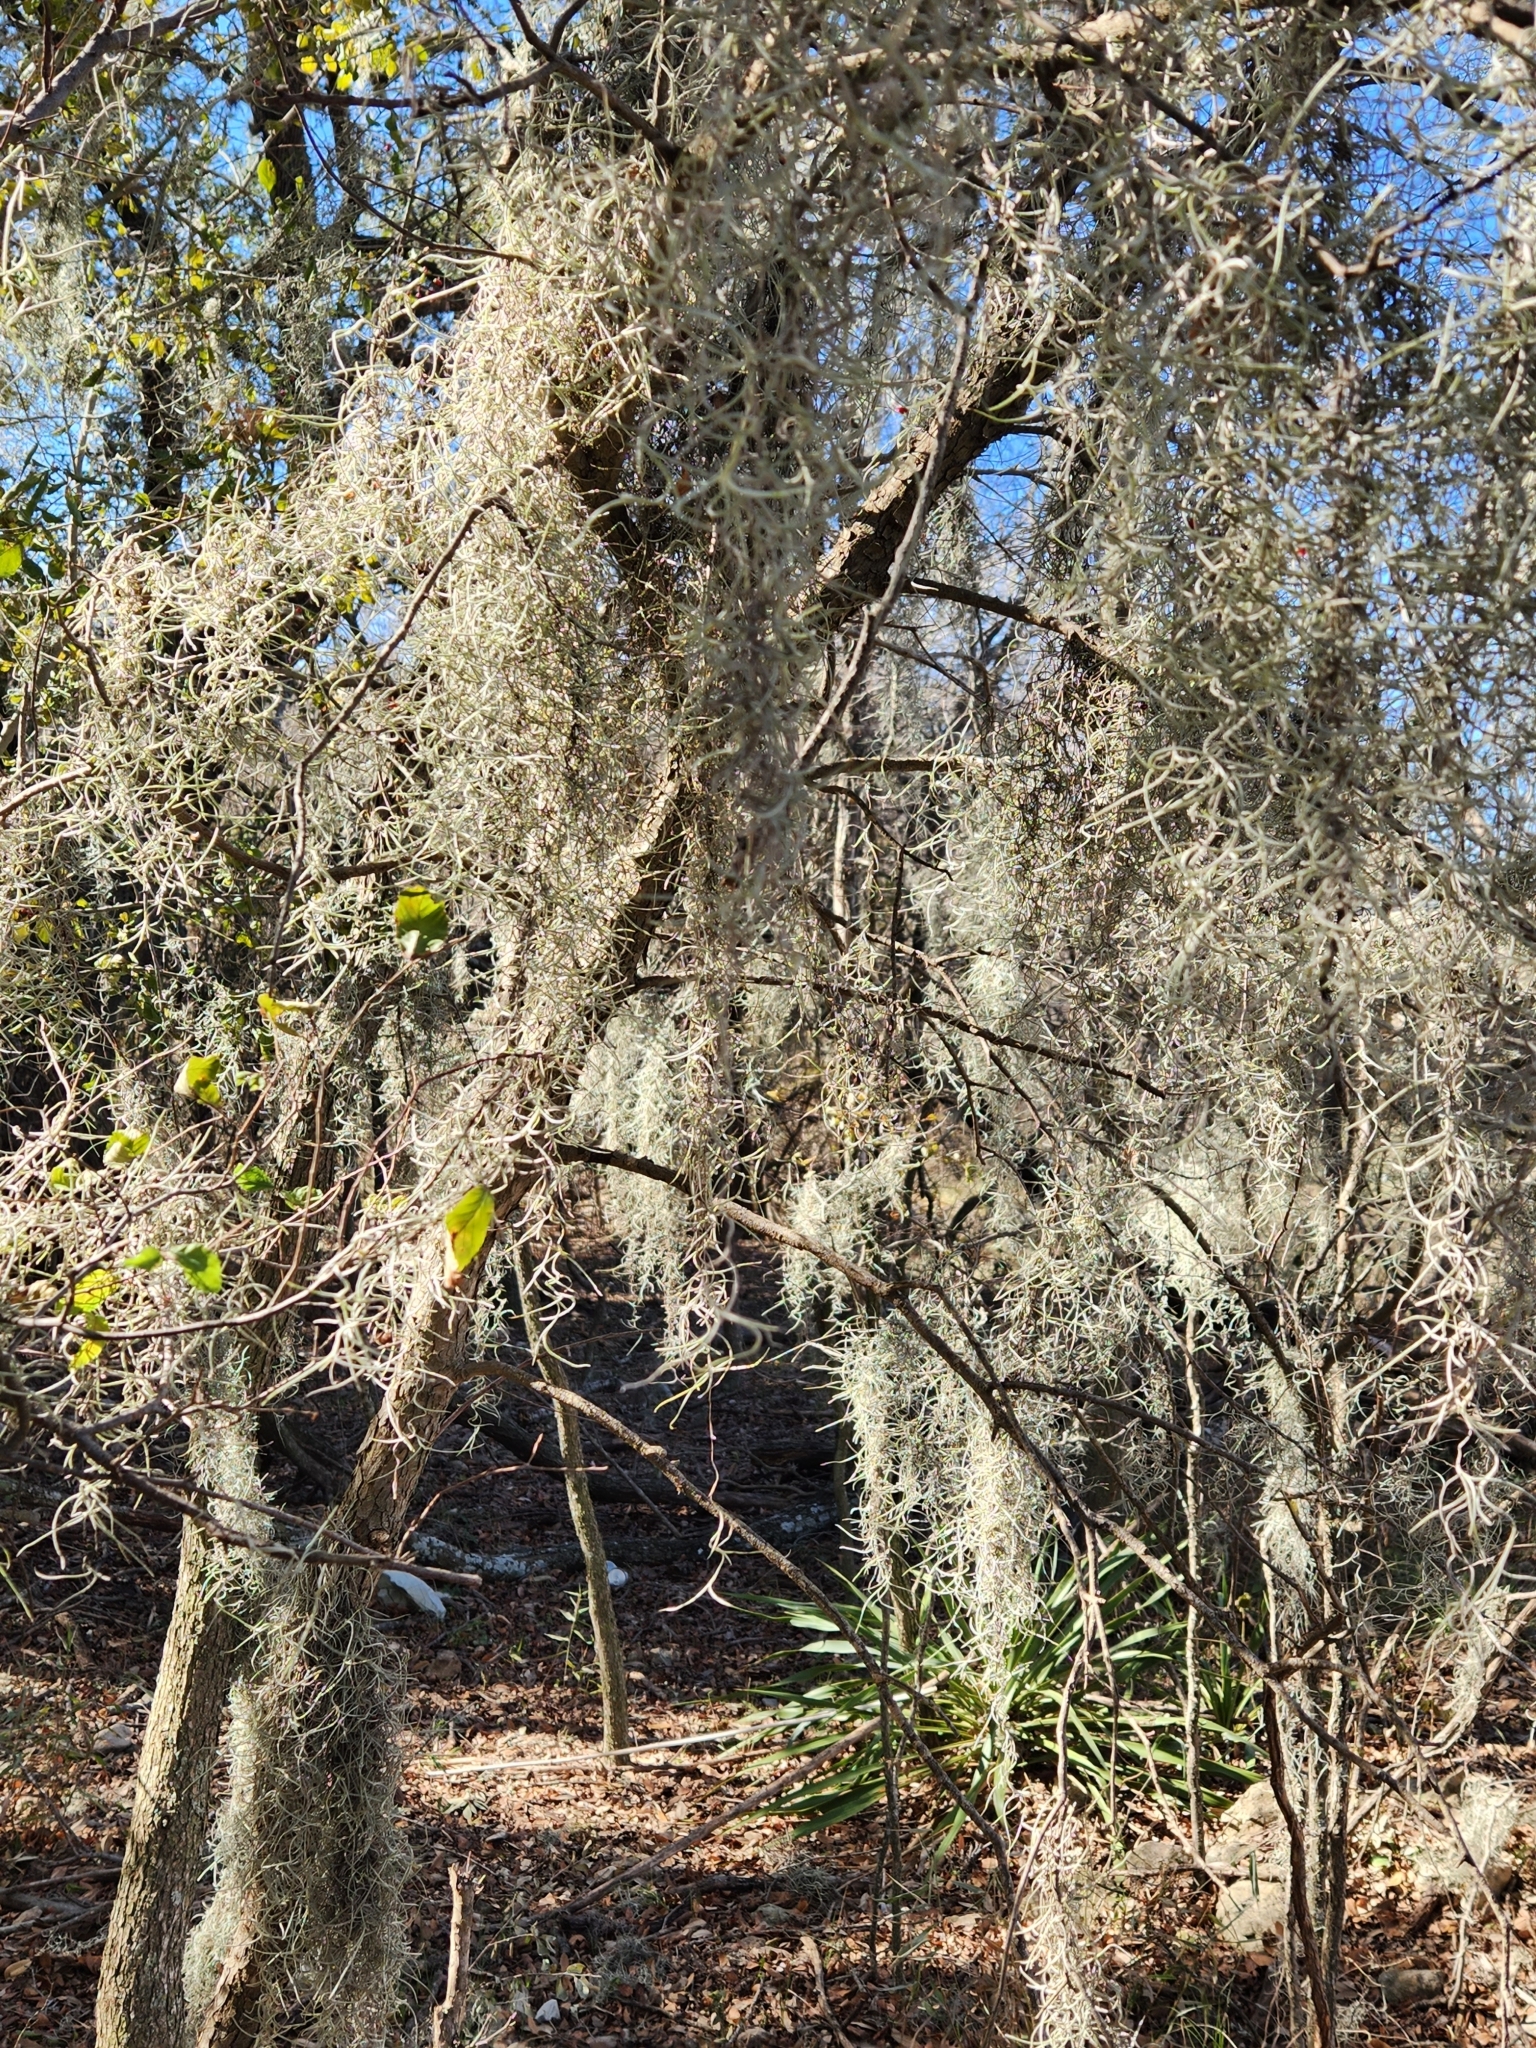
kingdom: Plantae
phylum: Tracheophyta
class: Liliopsida
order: Poales
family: Bromeliaceae
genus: Tillandsia
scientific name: Tillandsia usneoides
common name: Spanish moss
